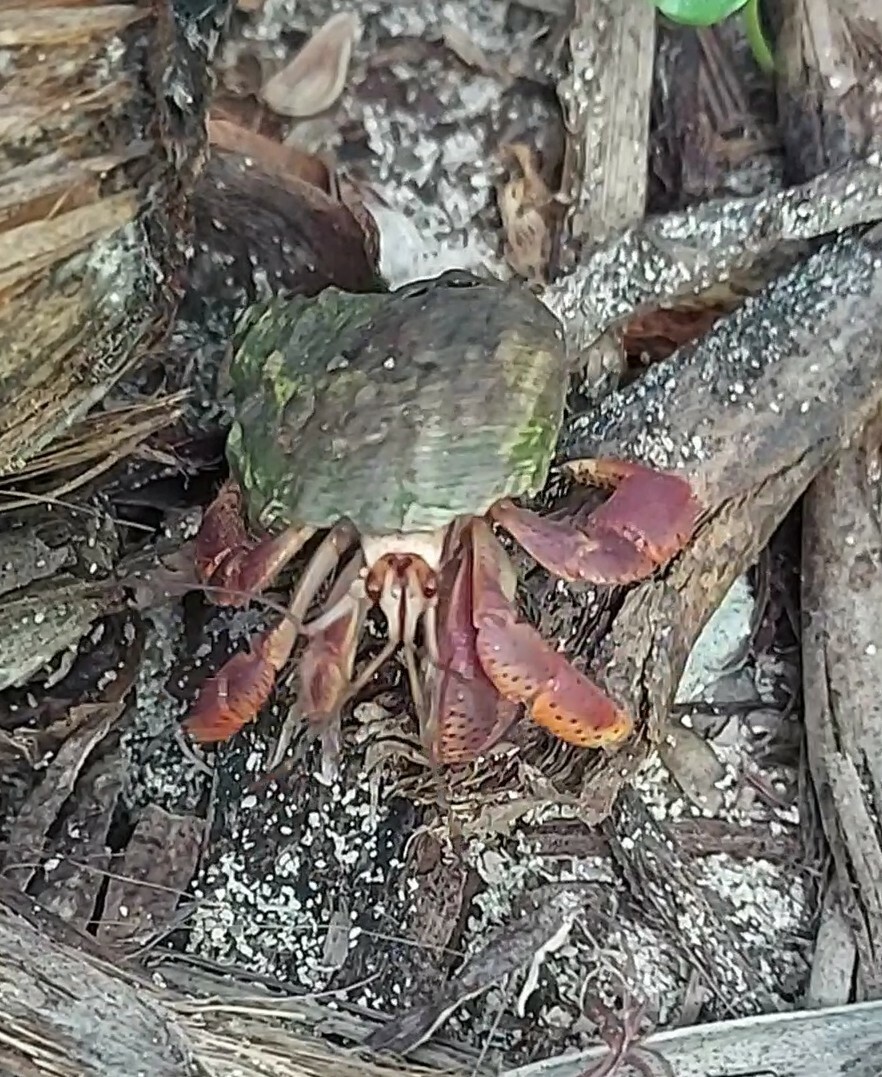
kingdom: Animalia
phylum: Arthropoda
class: Malacostraca
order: Decapoda
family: Coenobitidae
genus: Coenobita
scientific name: Coenobita clypeatus
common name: Caribbean hermit crab
